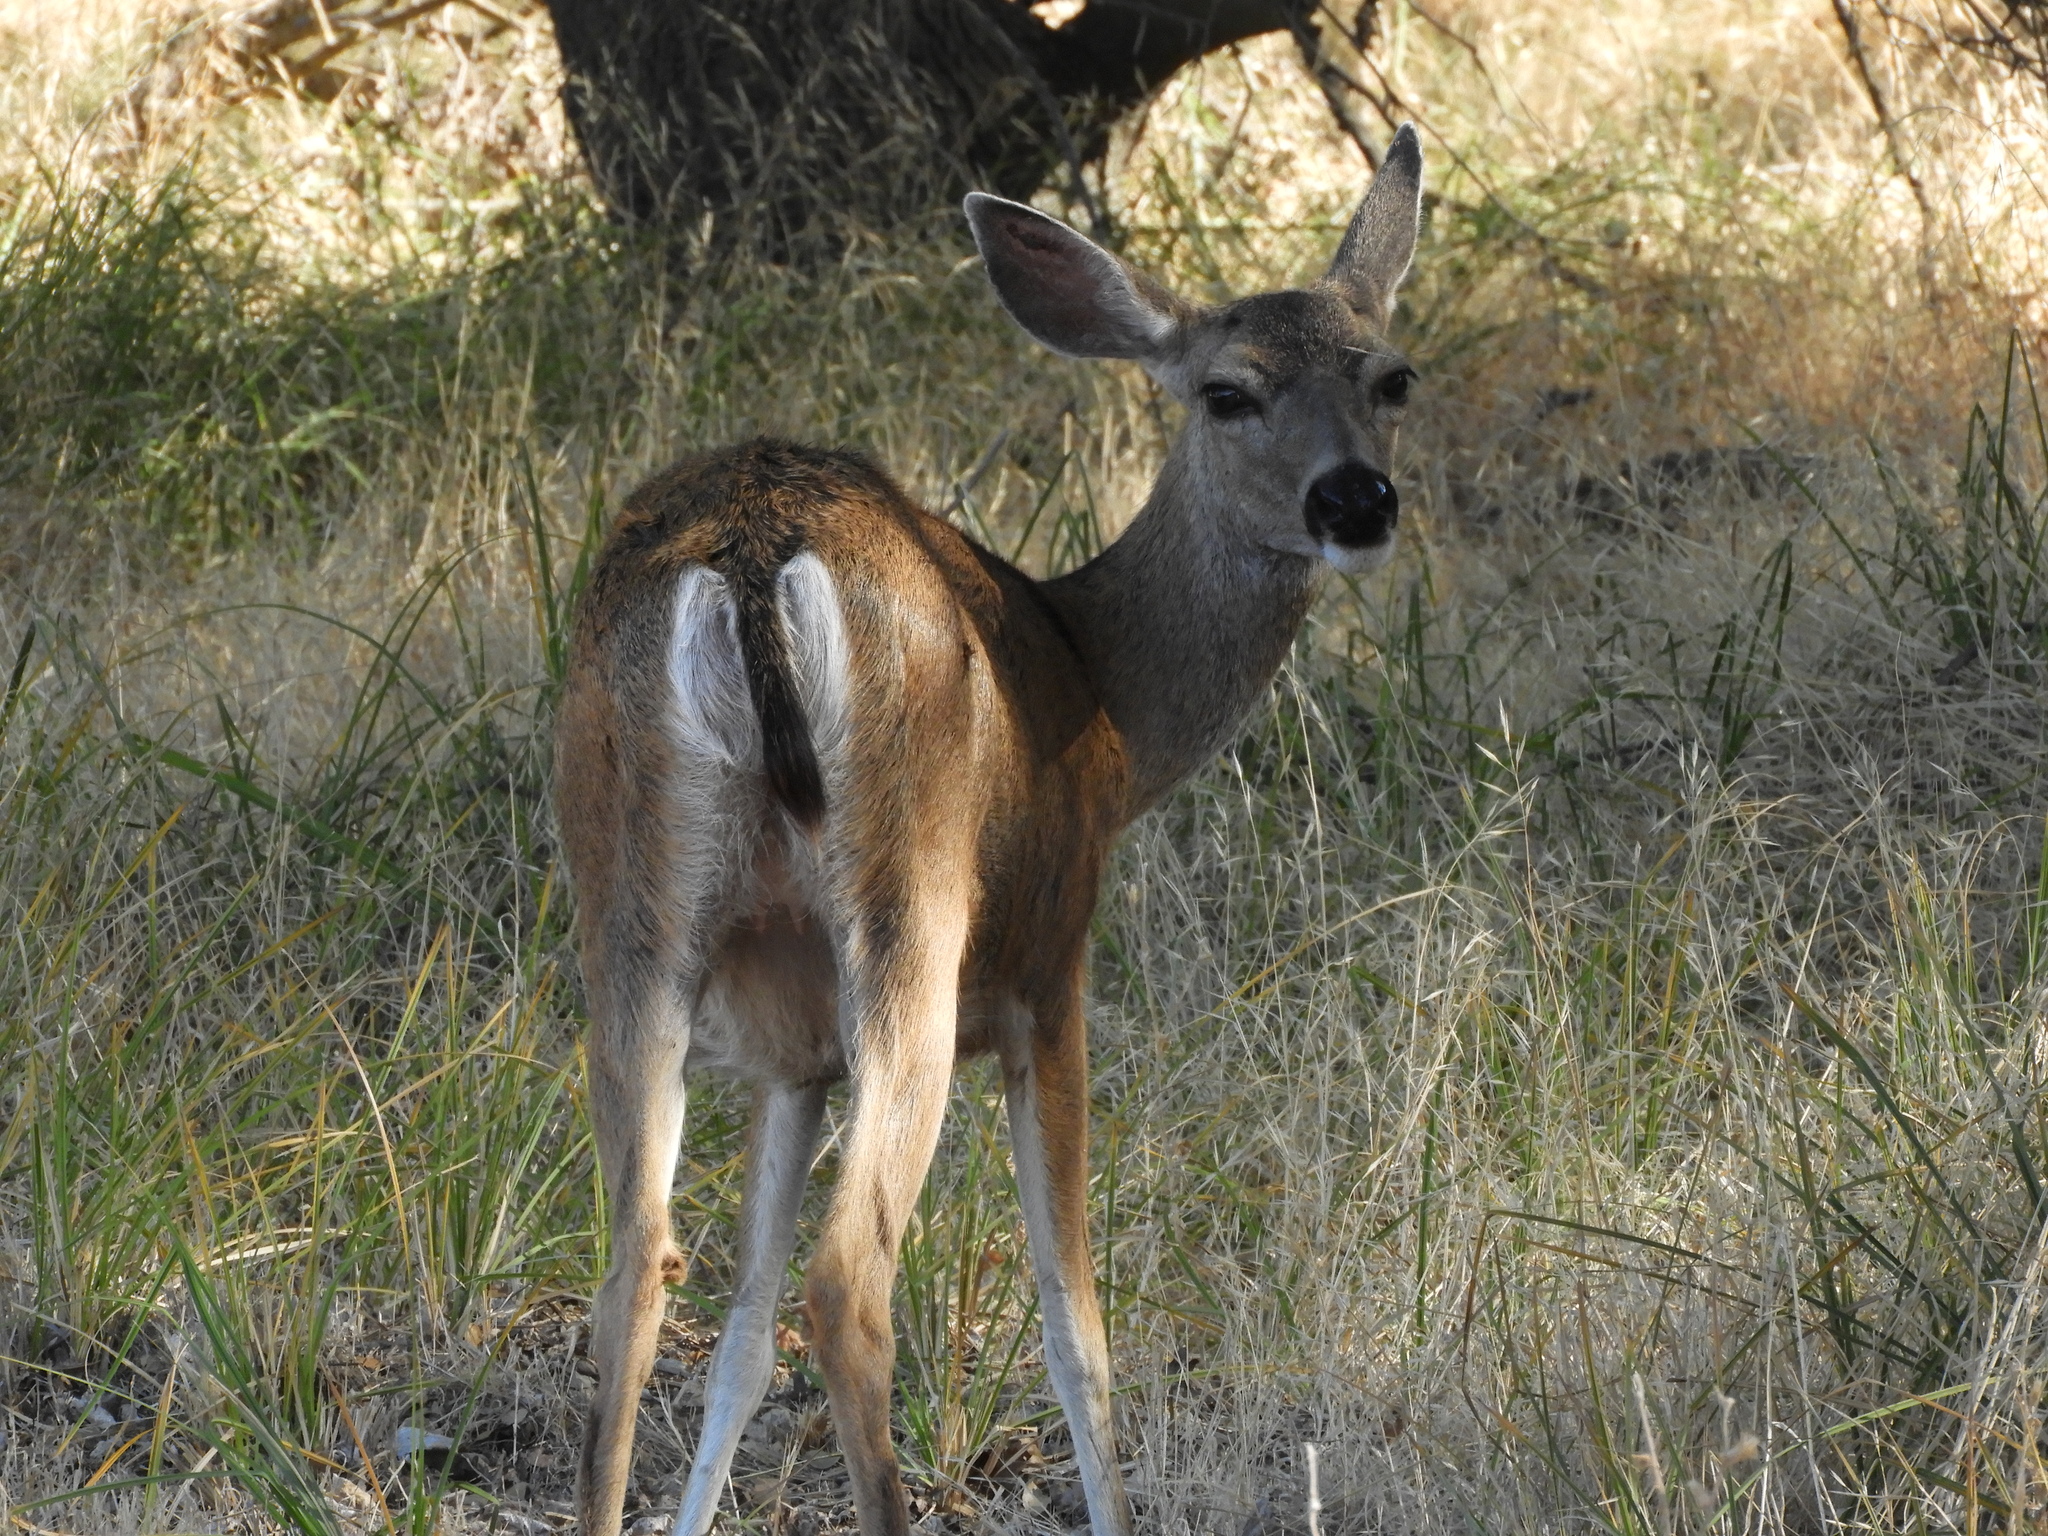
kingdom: Animalia
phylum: Chordata
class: Mammalia
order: Artiodactyla
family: Cervidae
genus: Odocoileus
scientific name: Odocoileus hemionus
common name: Mule deer
